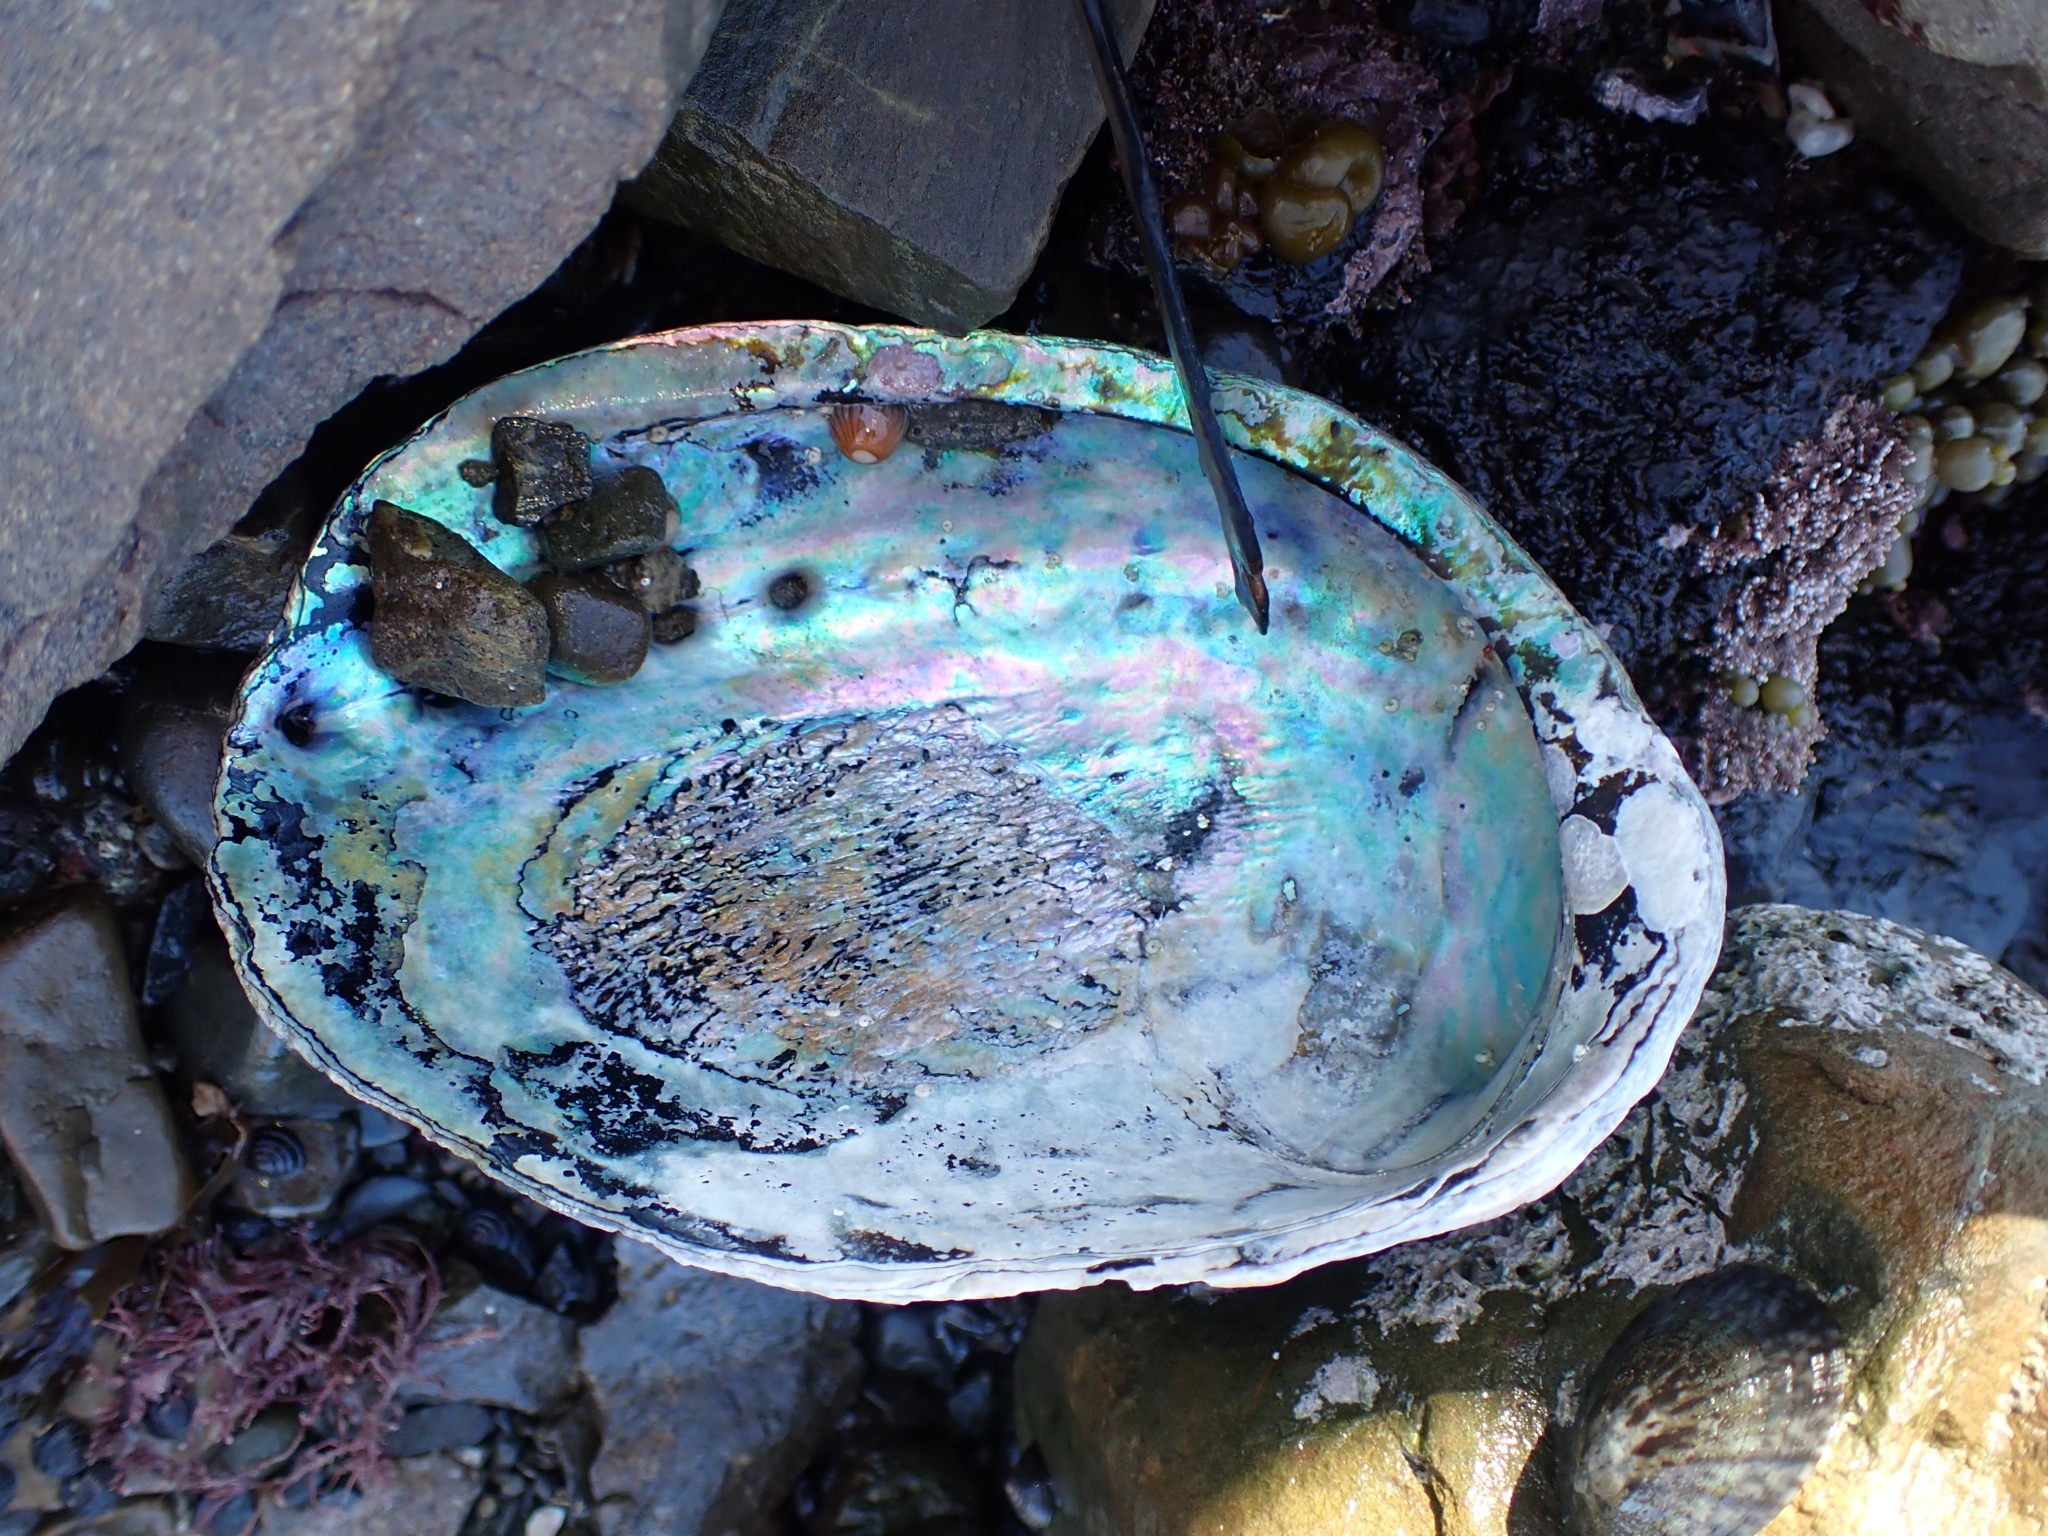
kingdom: Animalia
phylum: Mollusca
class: Gastropoda
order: Lepetellida
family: Haliotidae
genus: Haliotis
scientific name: Haliotis iris
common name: Abalone
